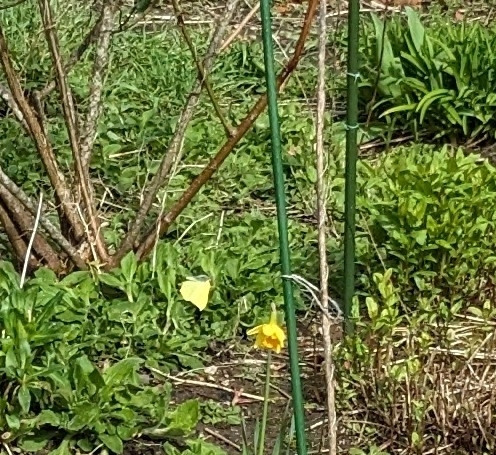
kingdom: Animalia
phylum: Arthropoda
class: Insecta
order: Lepidoptera
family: Pieridae
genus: Gonepteryx
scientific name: Gonepteryx rhamni
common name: Brimstone
